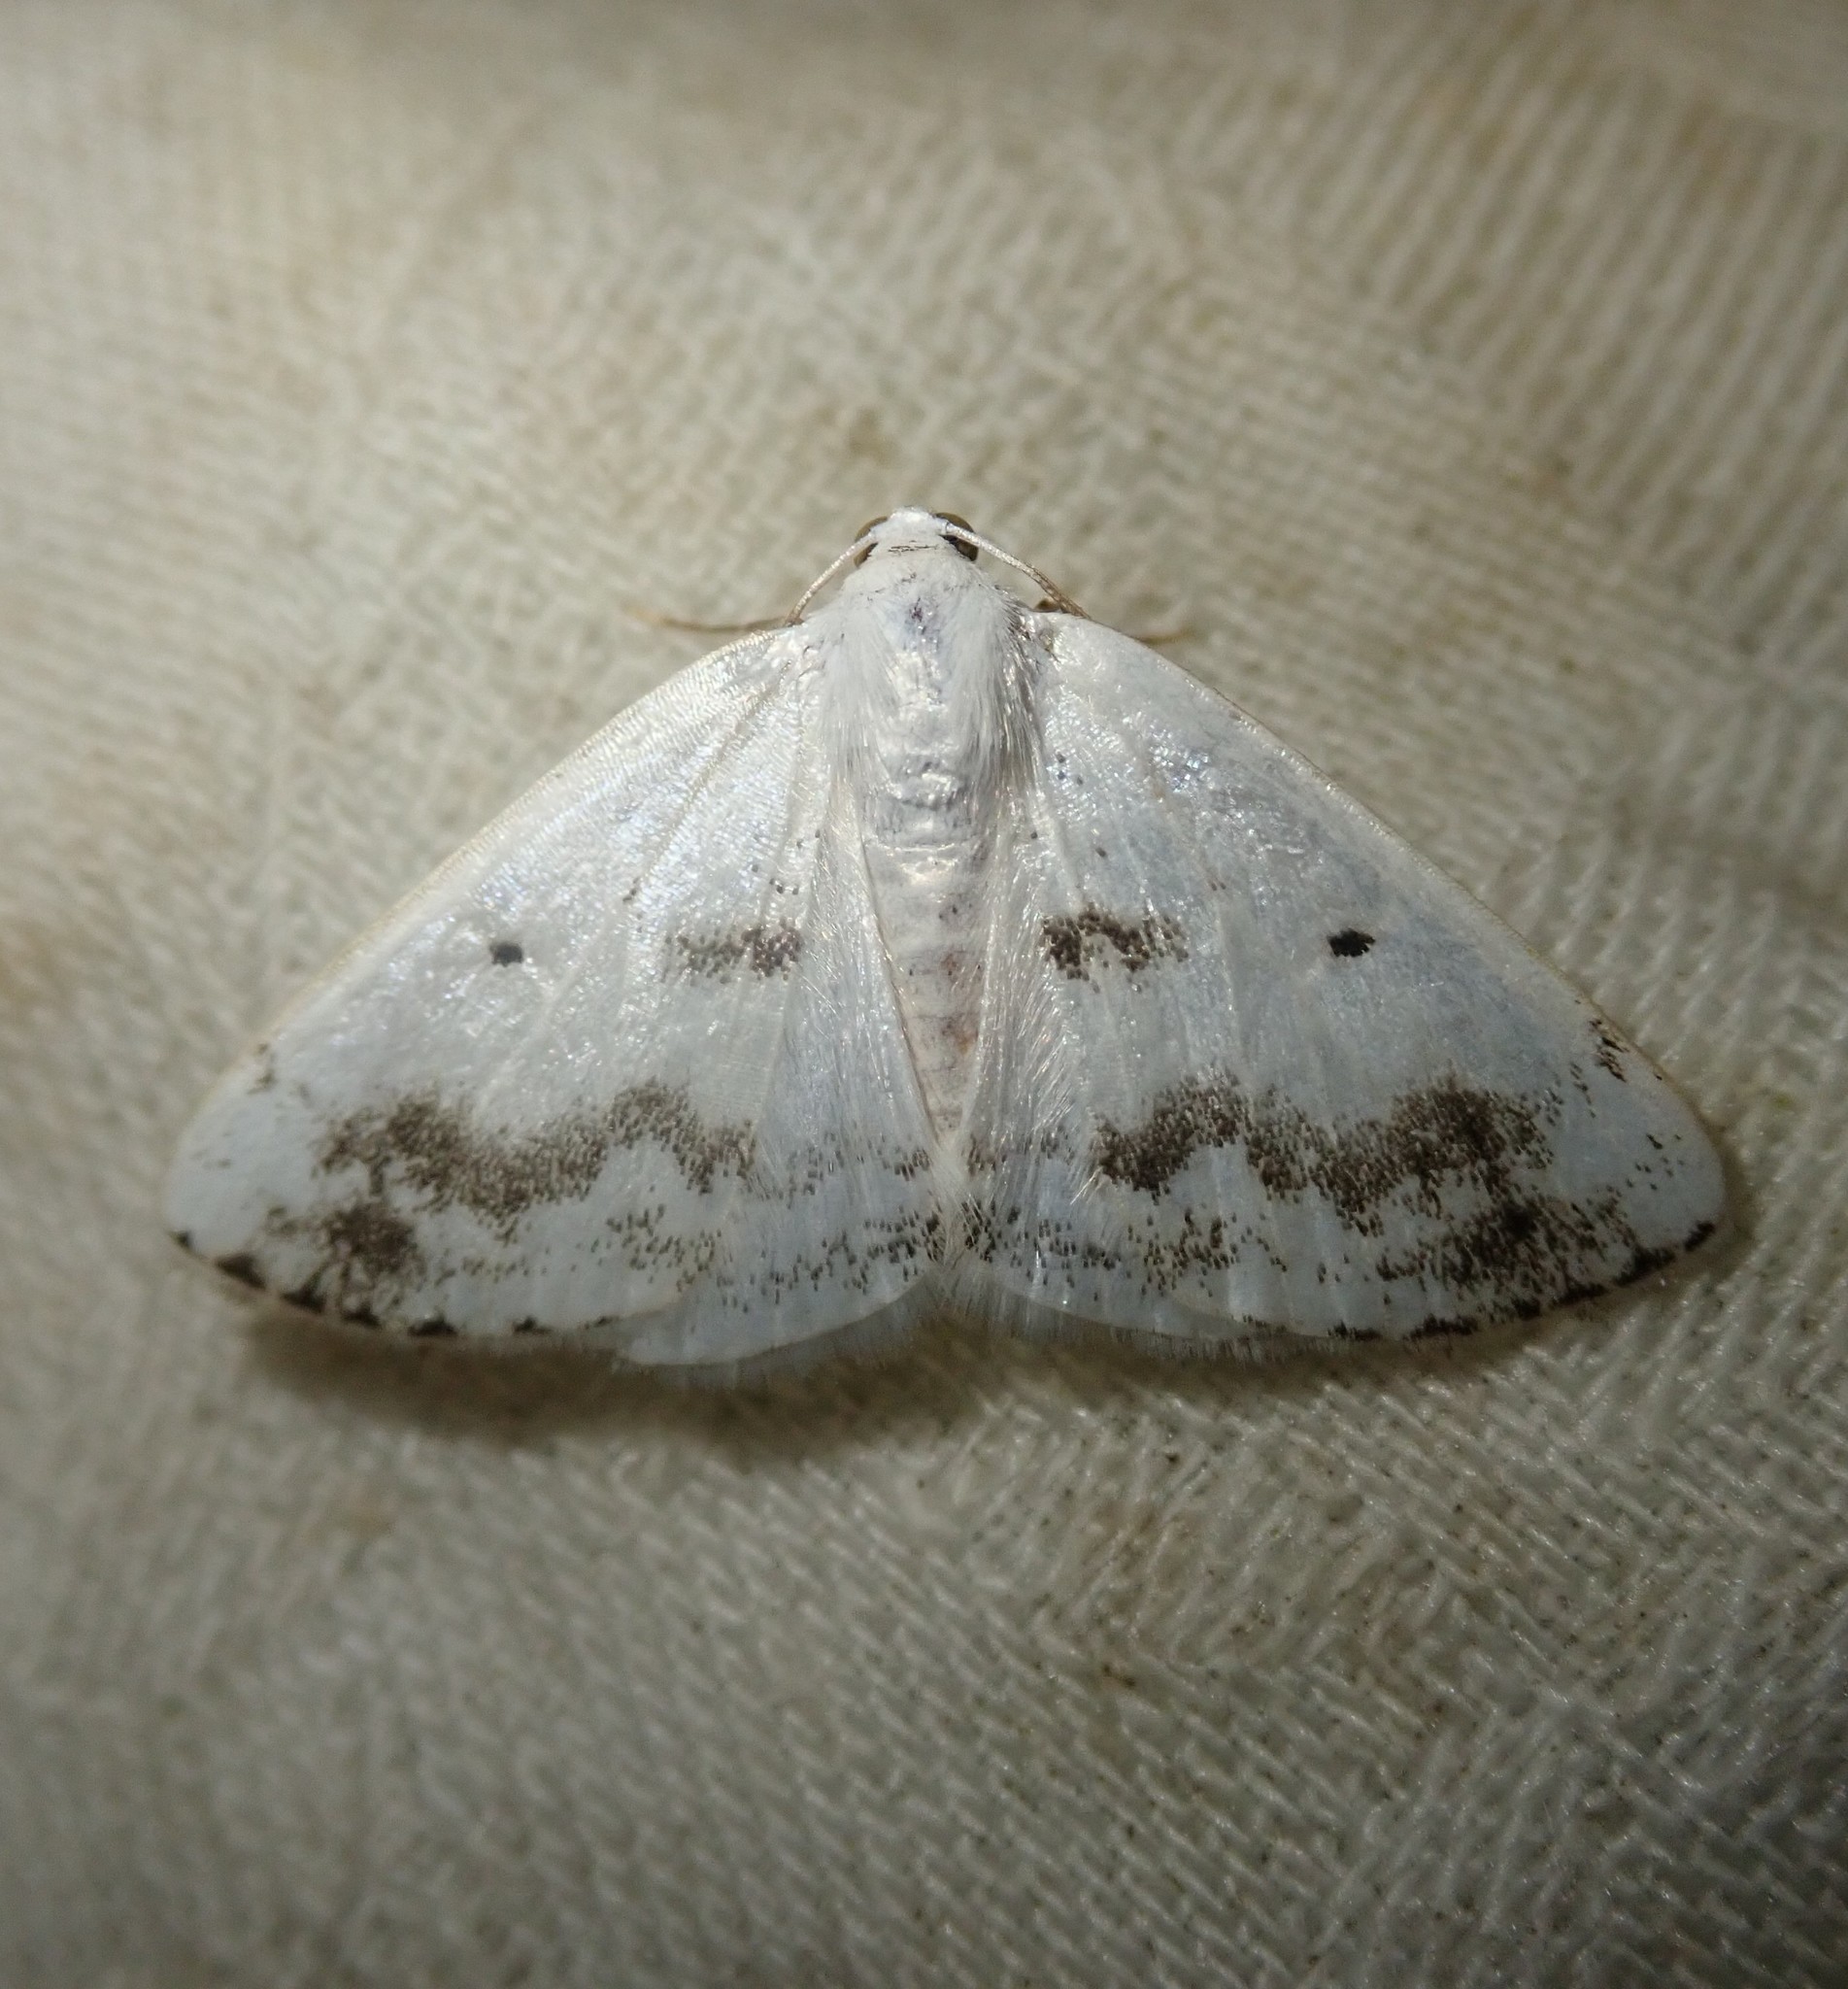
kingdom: Animalia
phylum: Arthropoda
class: Insecta
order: Lepidoptera
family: Geometridae
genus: Lomographa
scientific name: Lomographa temerata
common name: Clouded silver
